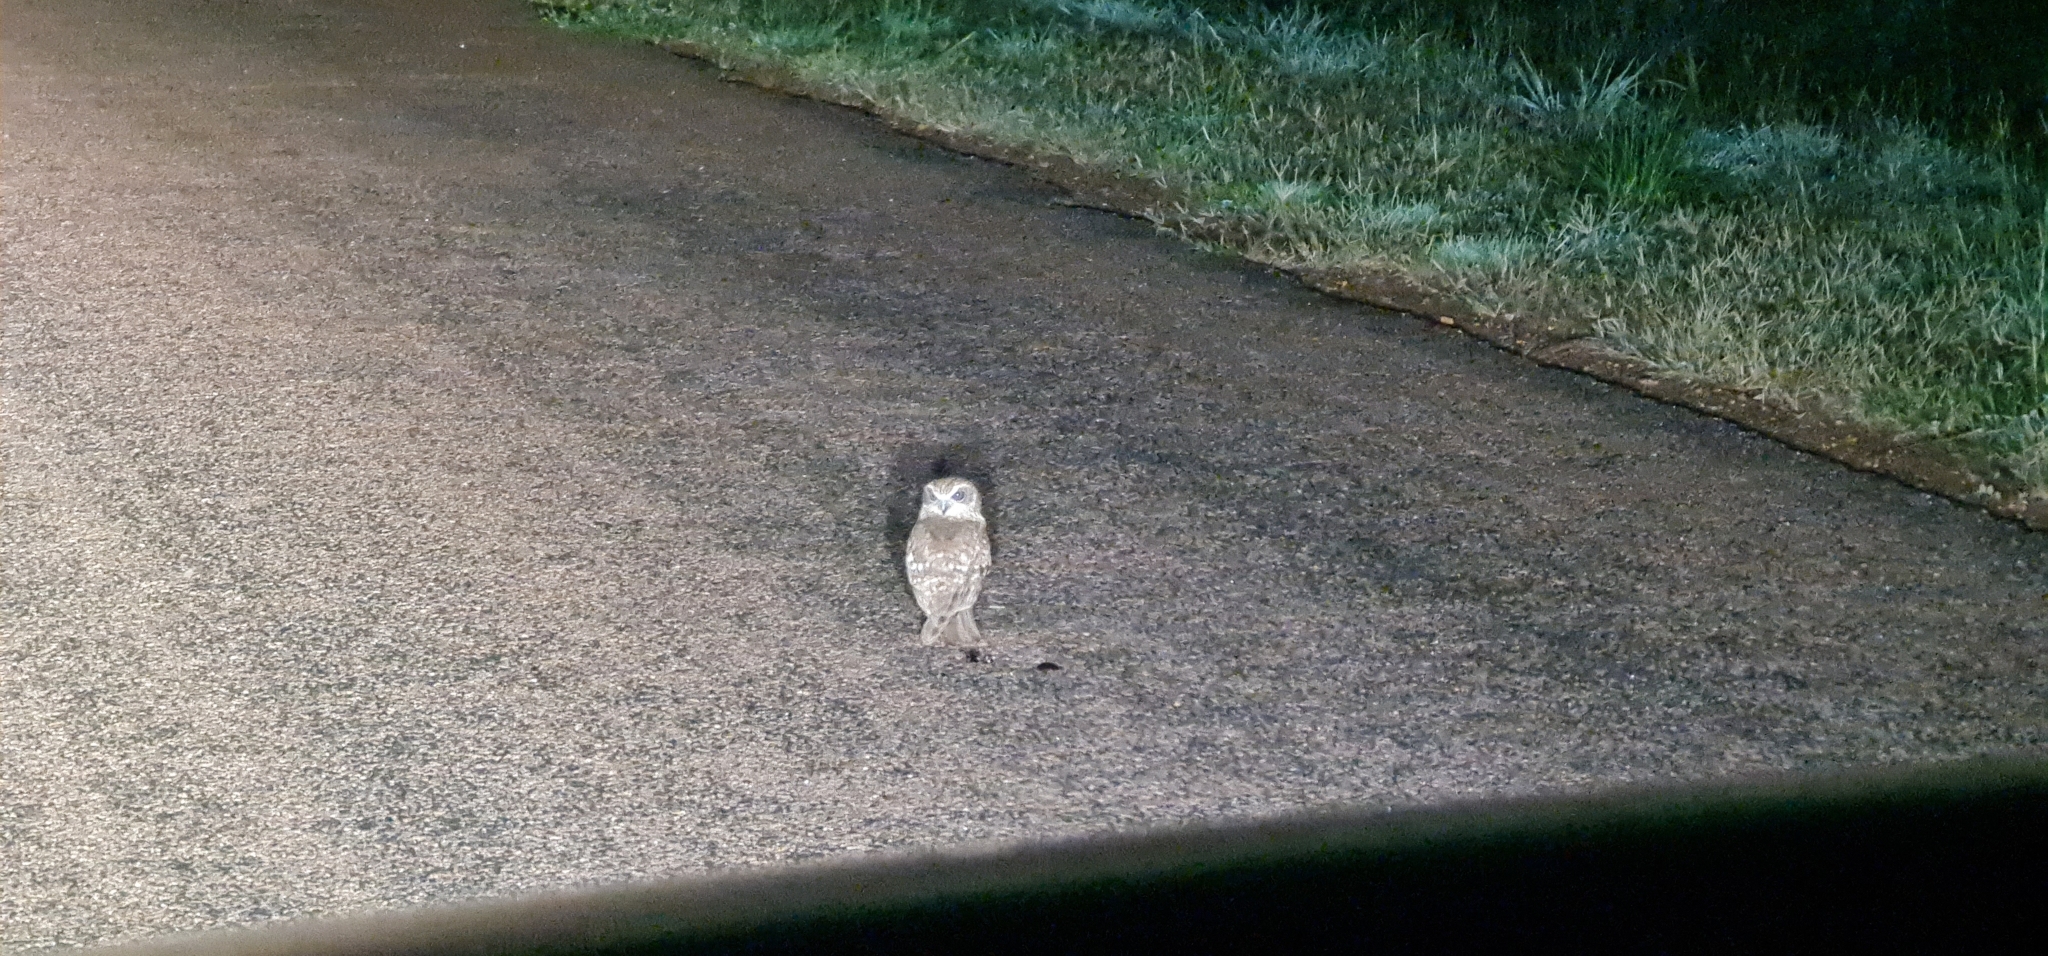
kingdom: Animalia
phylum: Chordata
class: Aves
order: Strigiformes
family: Strigidae
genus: Ninox
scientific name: Ninox boobook
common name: Southern boobook
